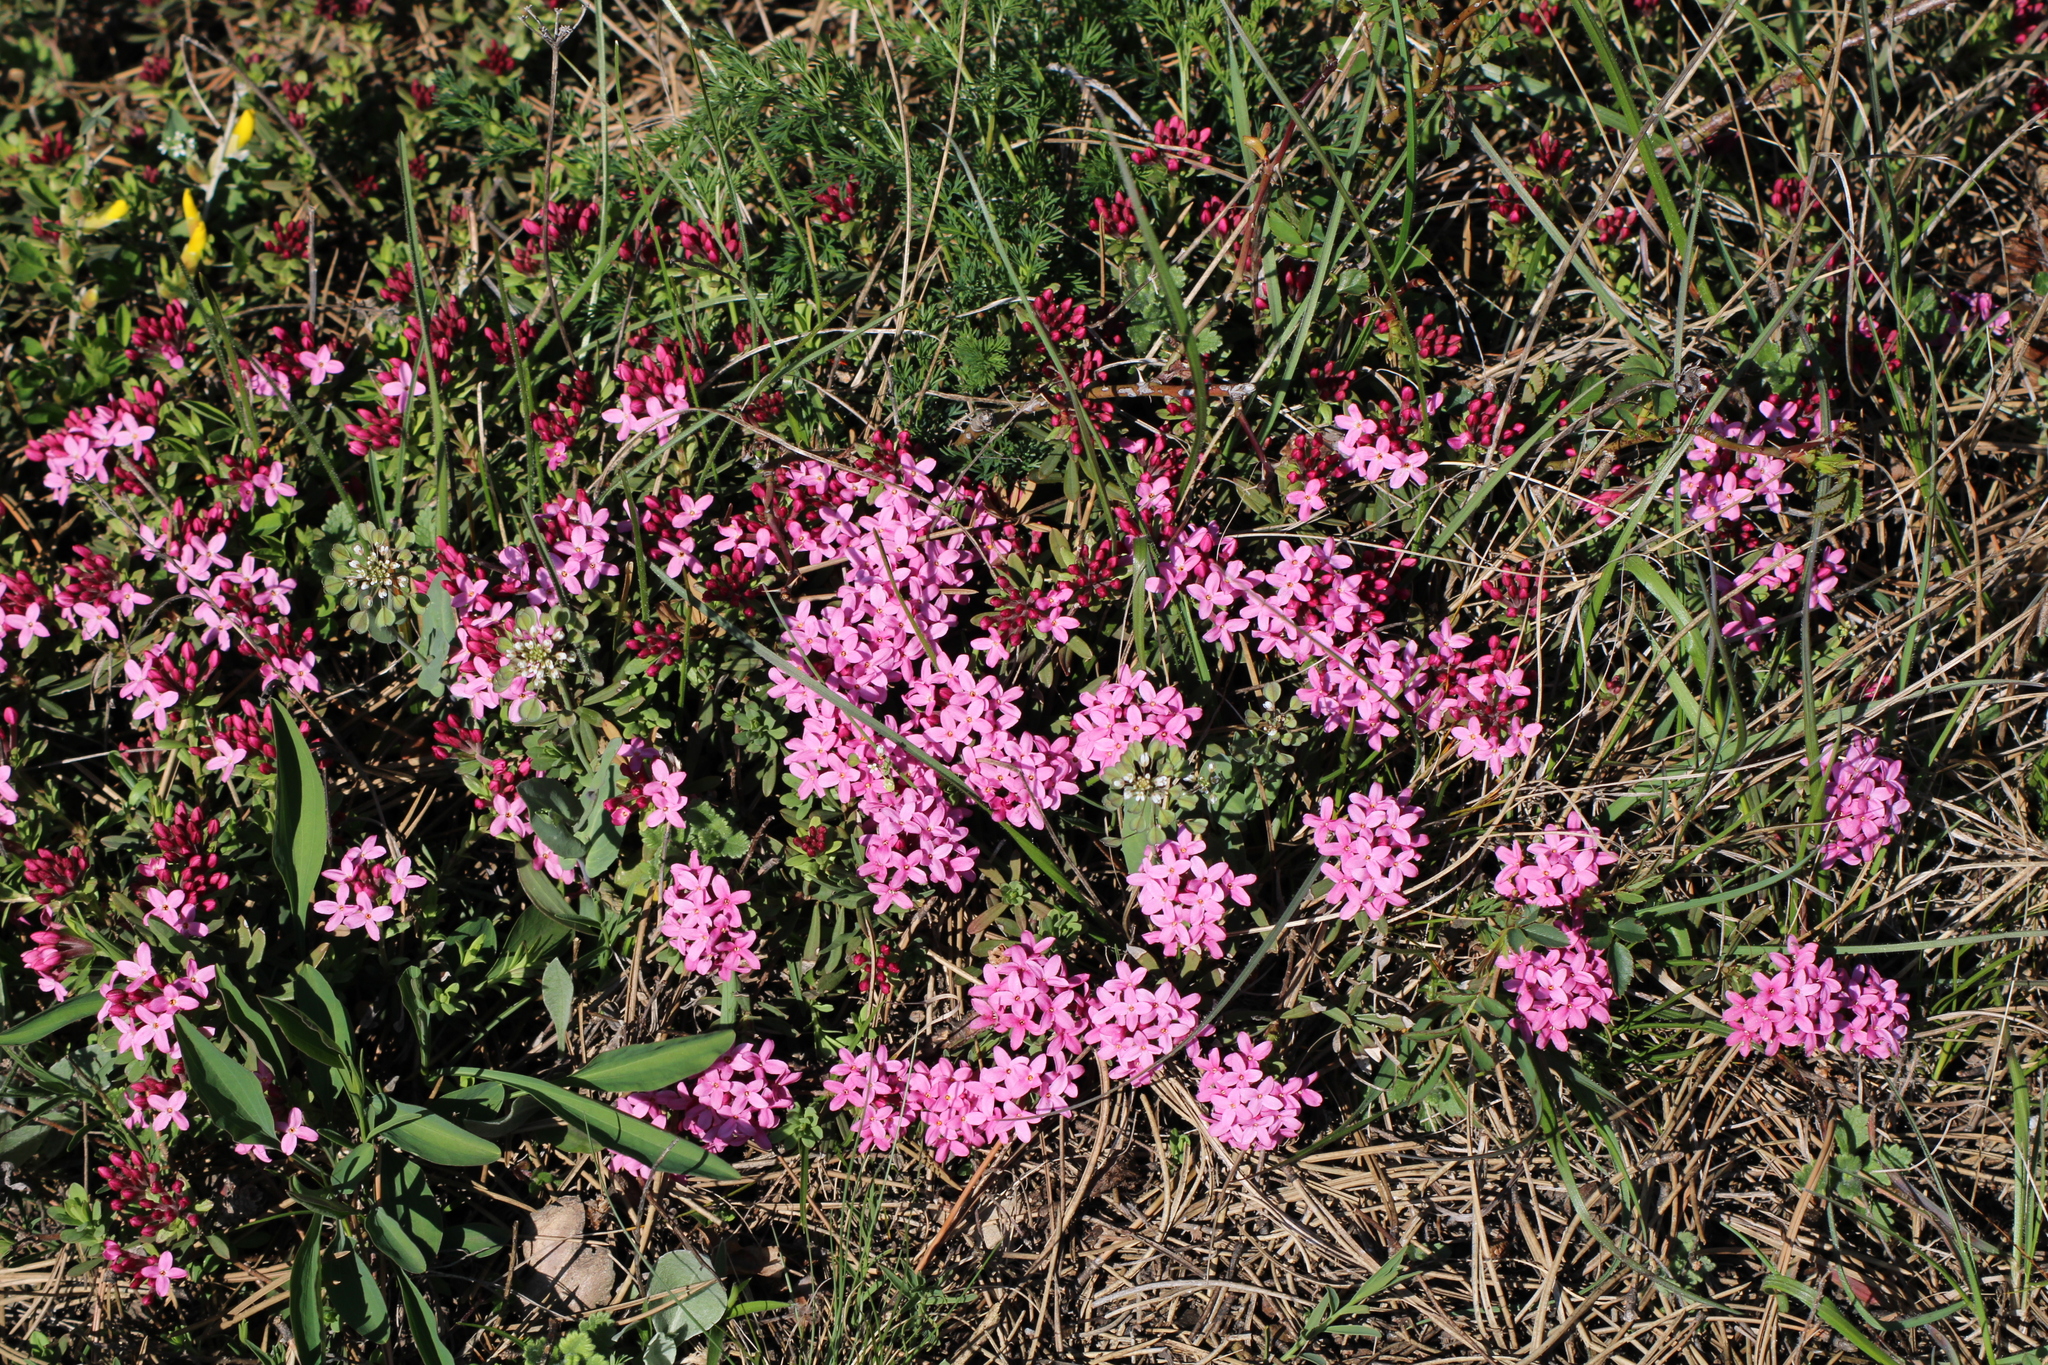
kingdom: Plantae
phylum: Tracheophyta
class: Magnoliopsida
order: Malvales
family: Thymelaeaceae
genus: Daphne
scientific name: Daphne cneorum
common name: Garland-flower
